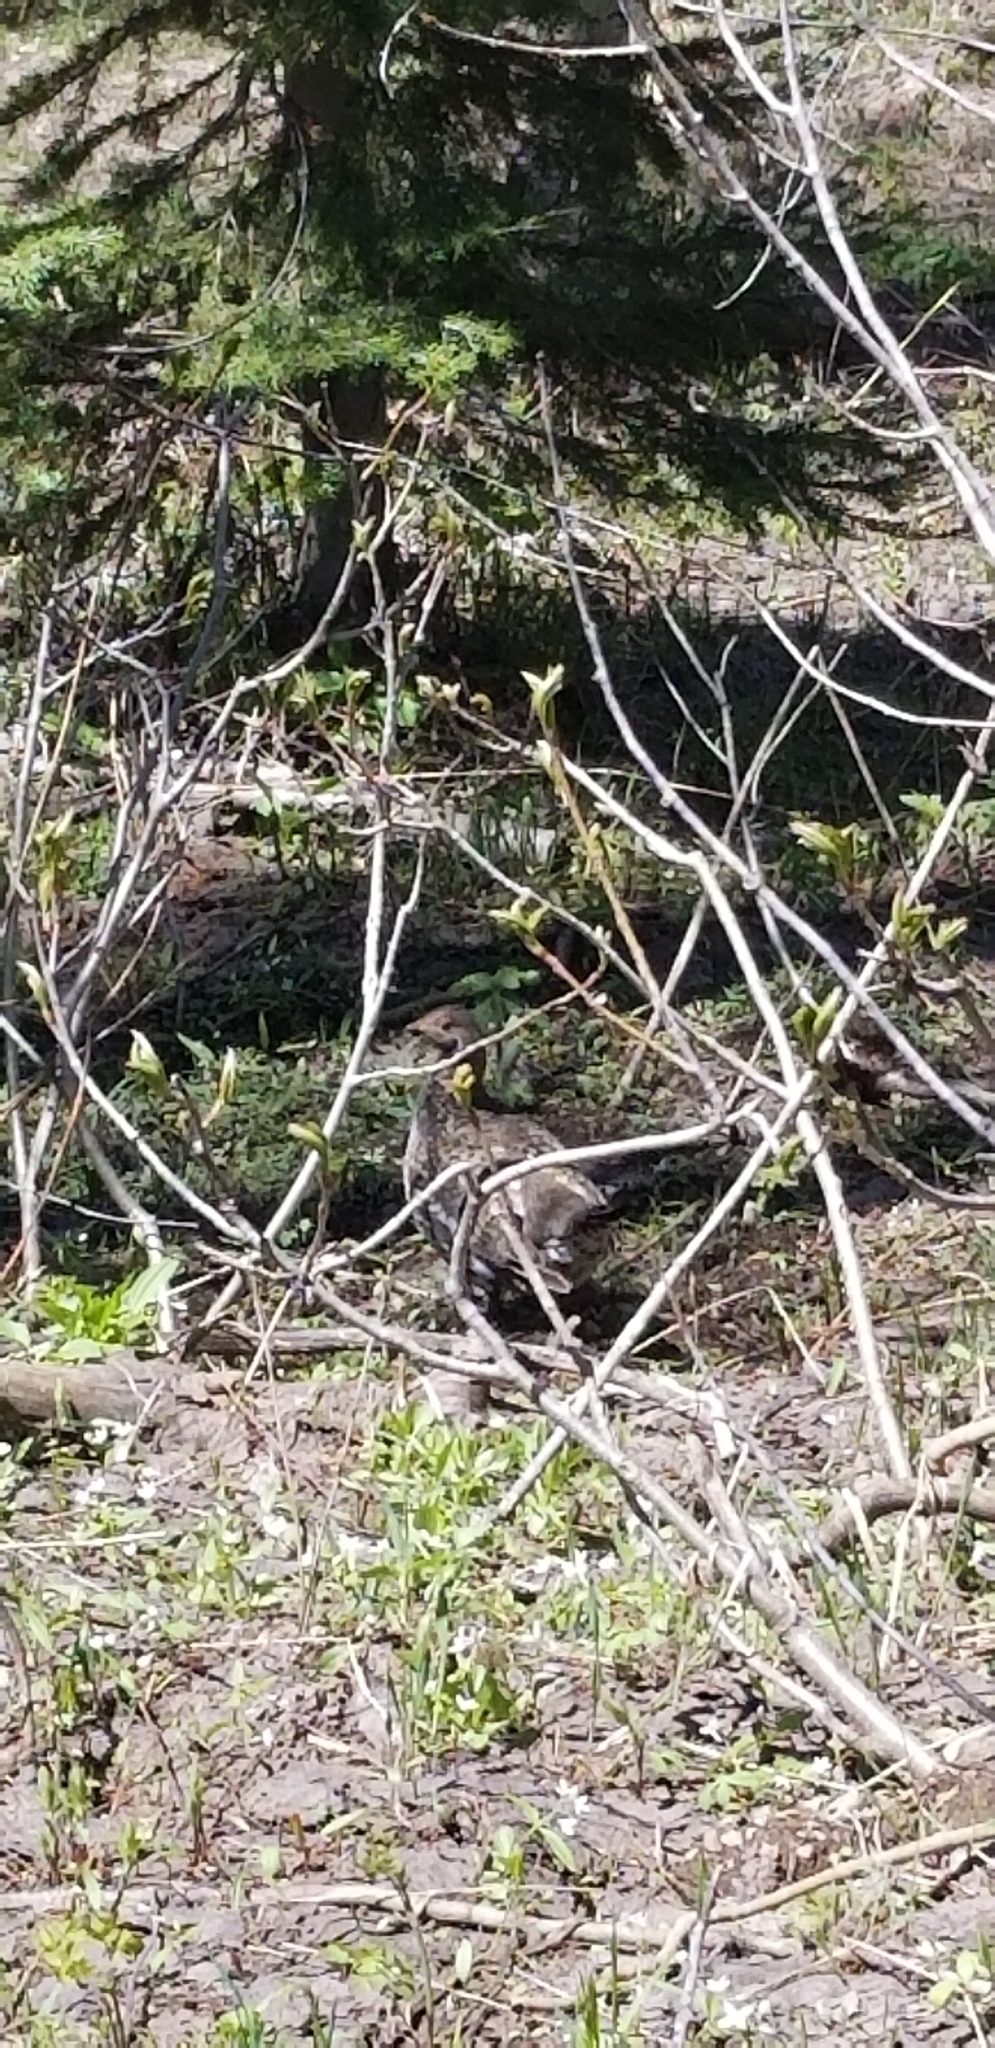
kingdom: Animalia
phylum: Chordata
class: Aves
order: Galliformes
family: Phasianidae
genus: Dendragapus
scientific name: Dendragapus obscurus
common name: Dusky grouse
